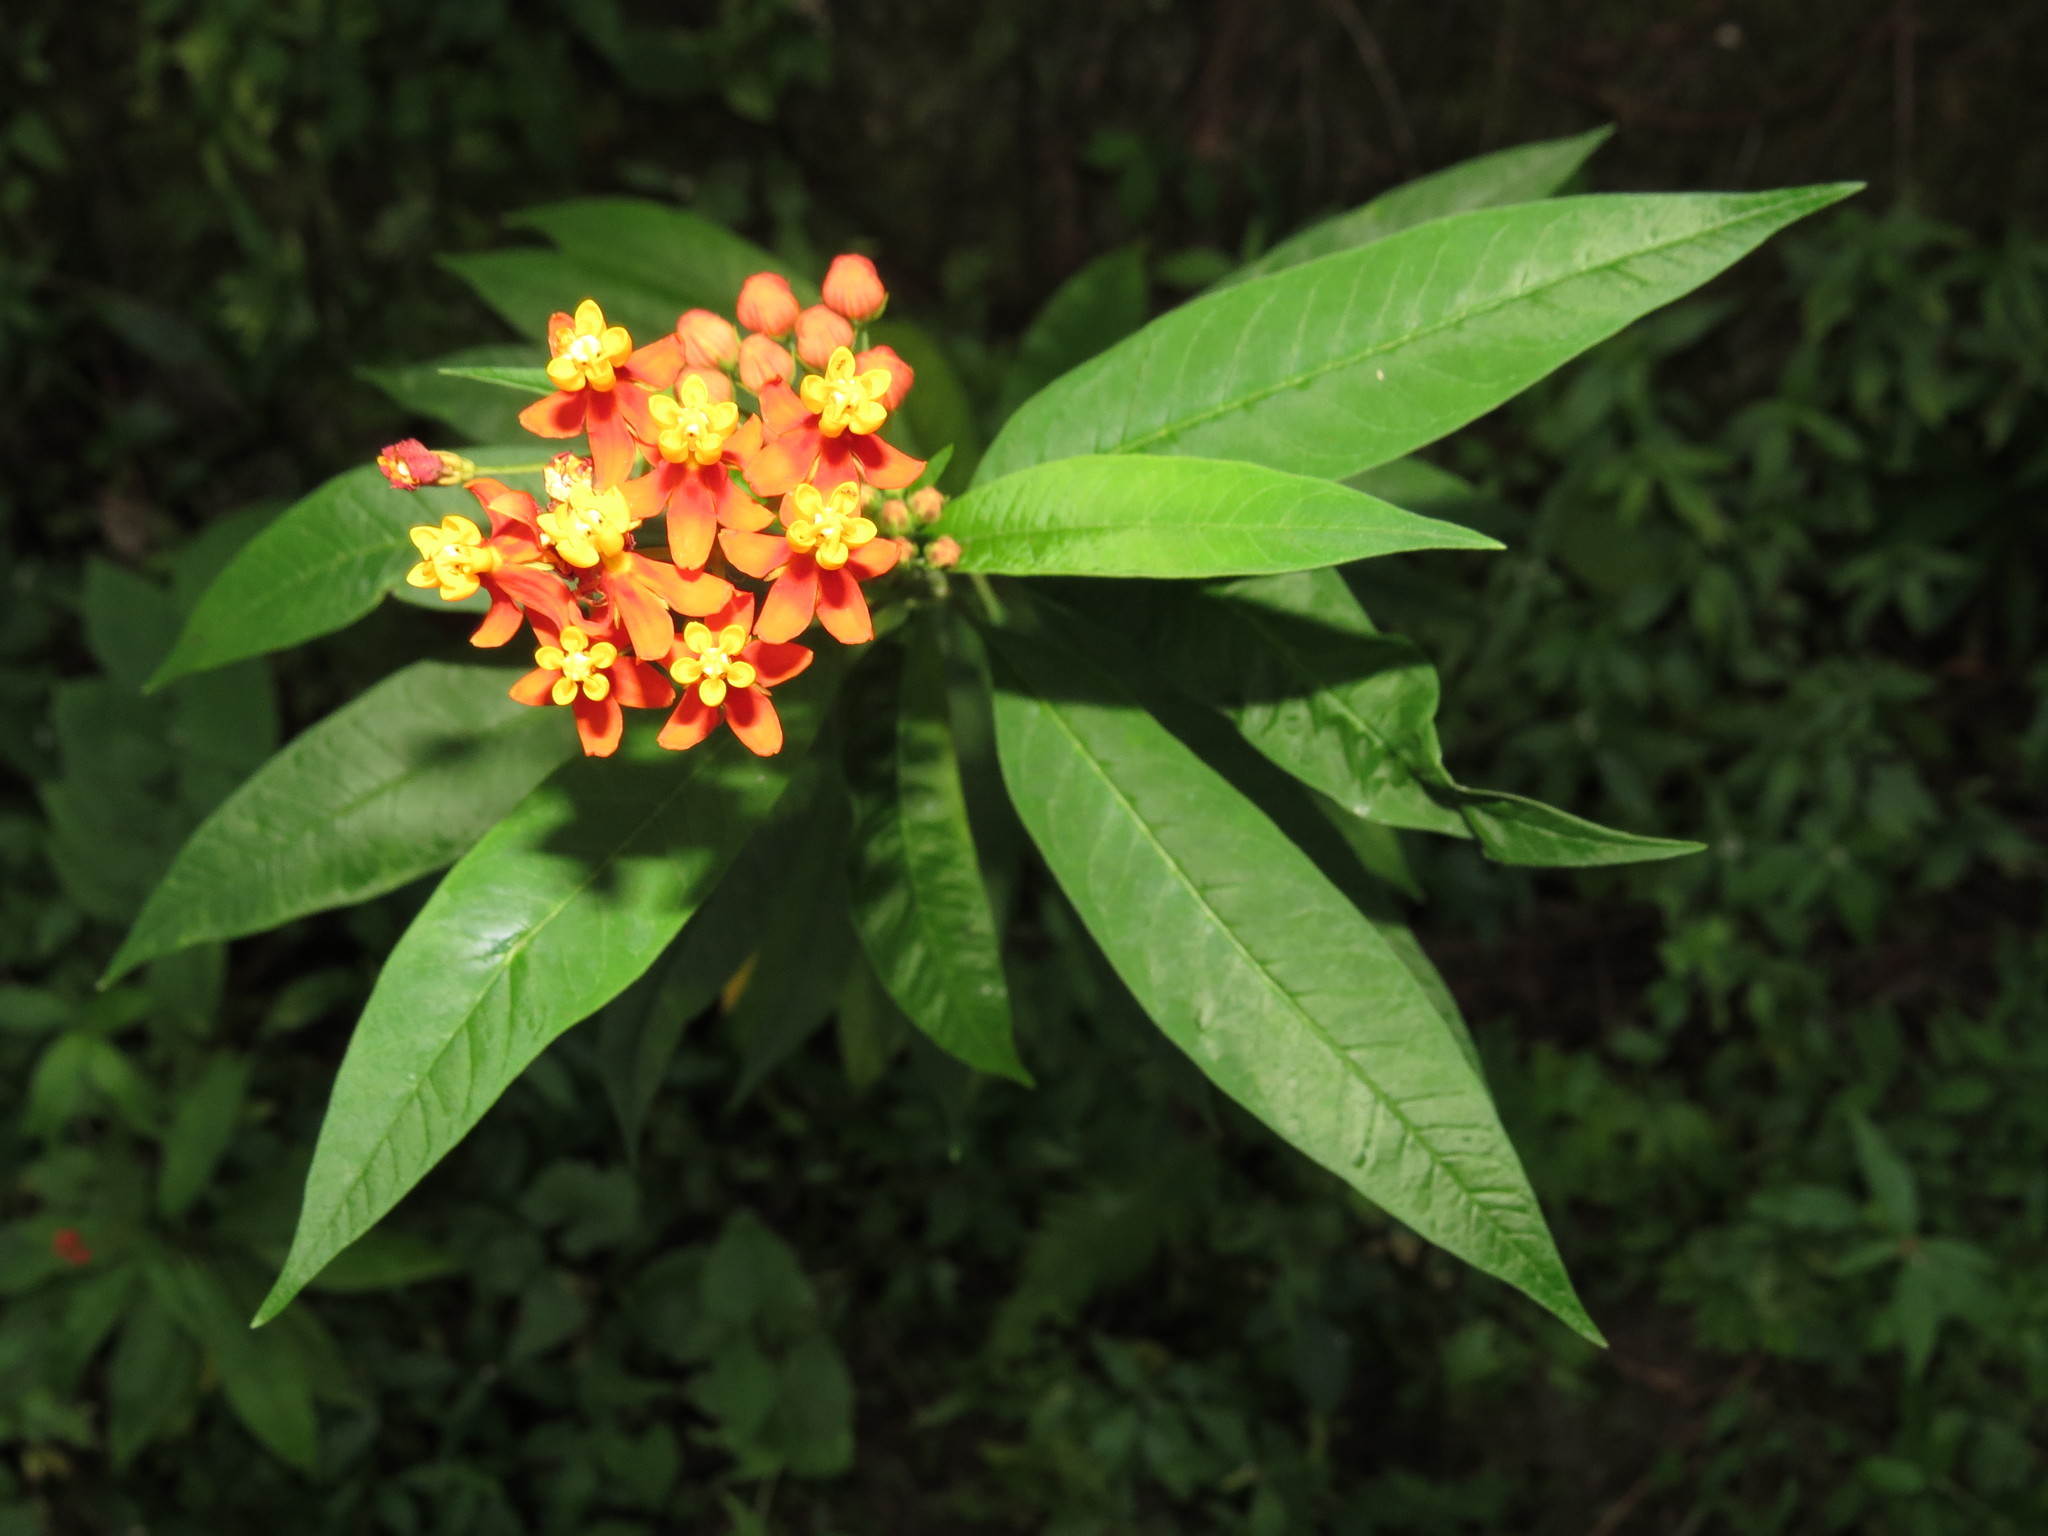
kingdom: Plantae
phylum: Tracheophyta
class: Magnoliopsida
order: Gentianales
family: Apocynaceae
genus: Asclepias
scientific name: Asclepias curassavica
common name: Bloodflower
